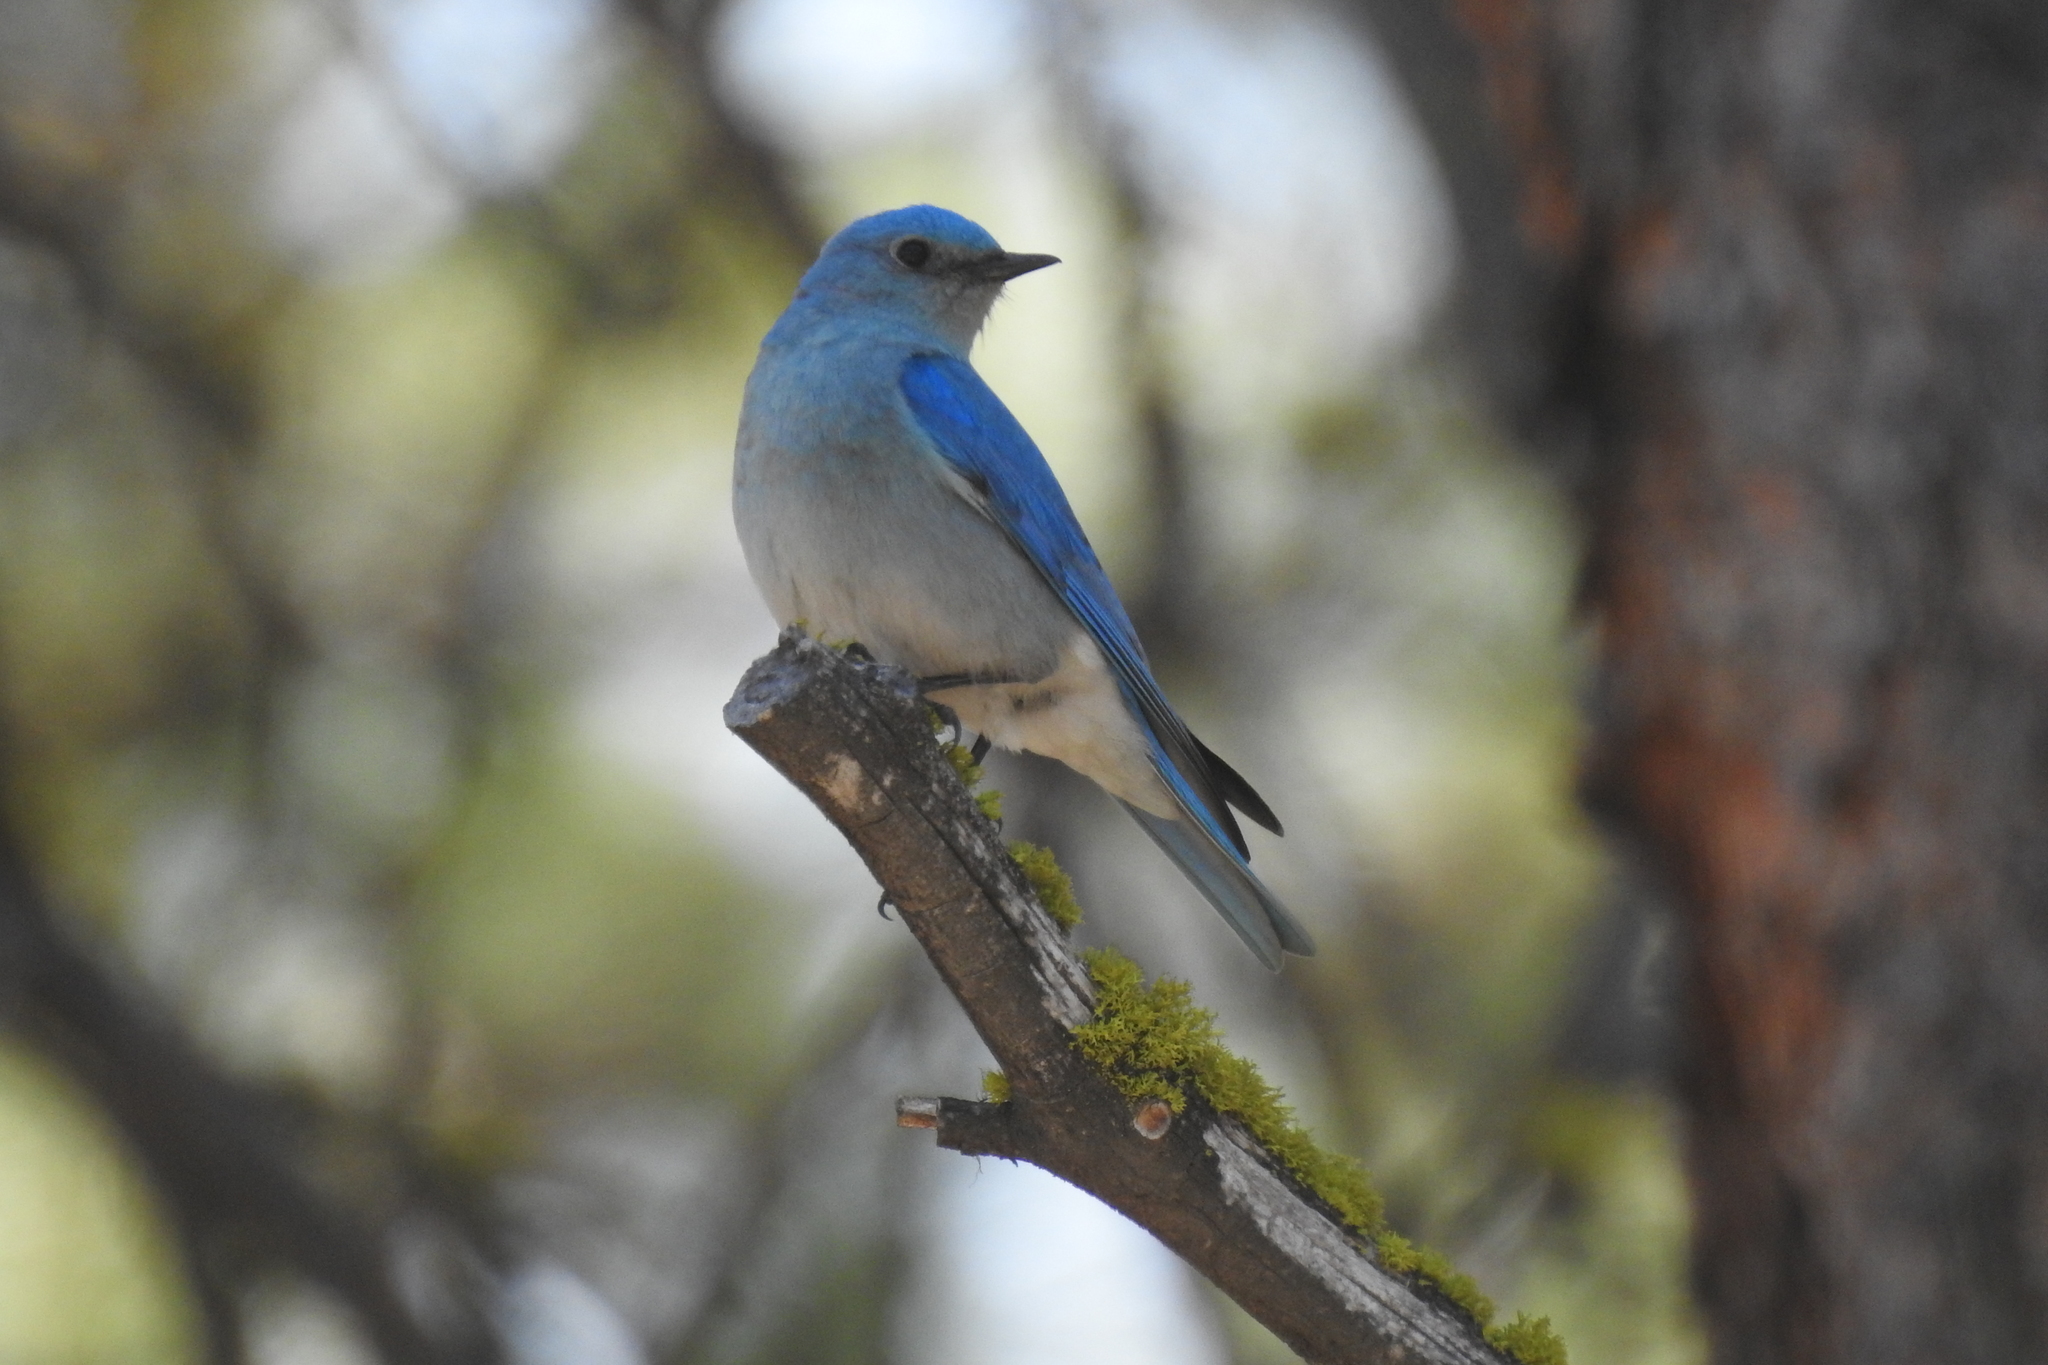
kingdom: Animalia
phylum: Chordata
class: Aves
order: Passeriformes
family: Turdidae
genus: Sialia
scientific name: Sialia currucoides
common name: Mountain bluebird
